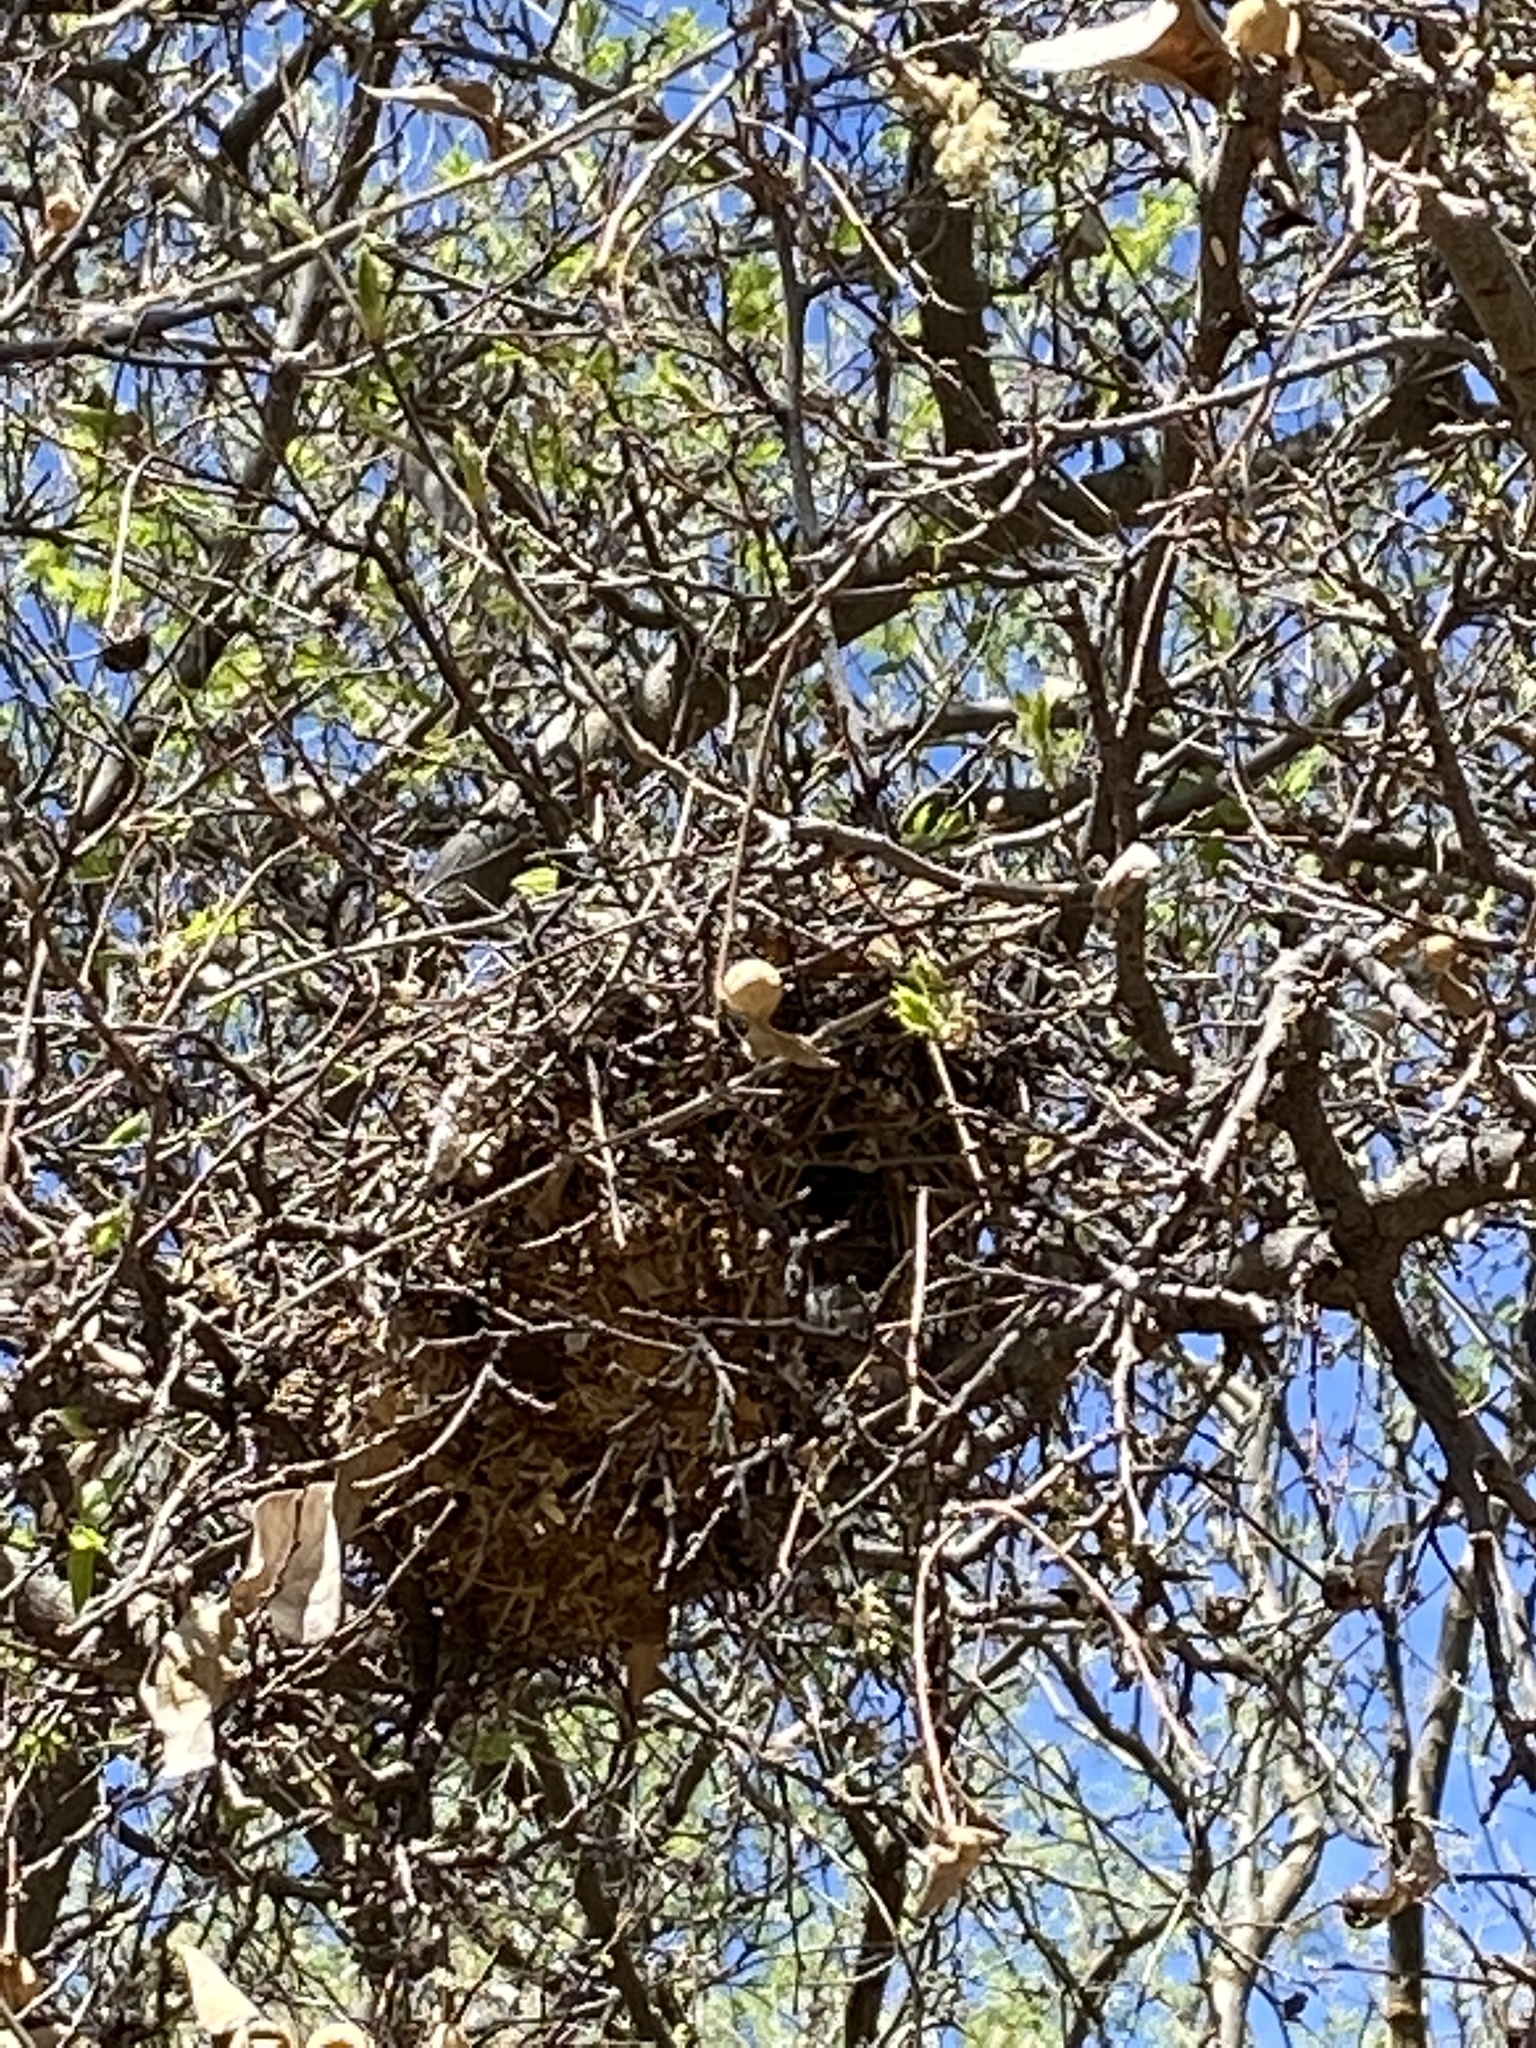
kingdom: Animalia
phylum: Chordata
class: Aves
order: Passeriformes
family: Remizidae
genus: Auriparus
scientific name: Auriparus flaviceps
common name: Verdin
